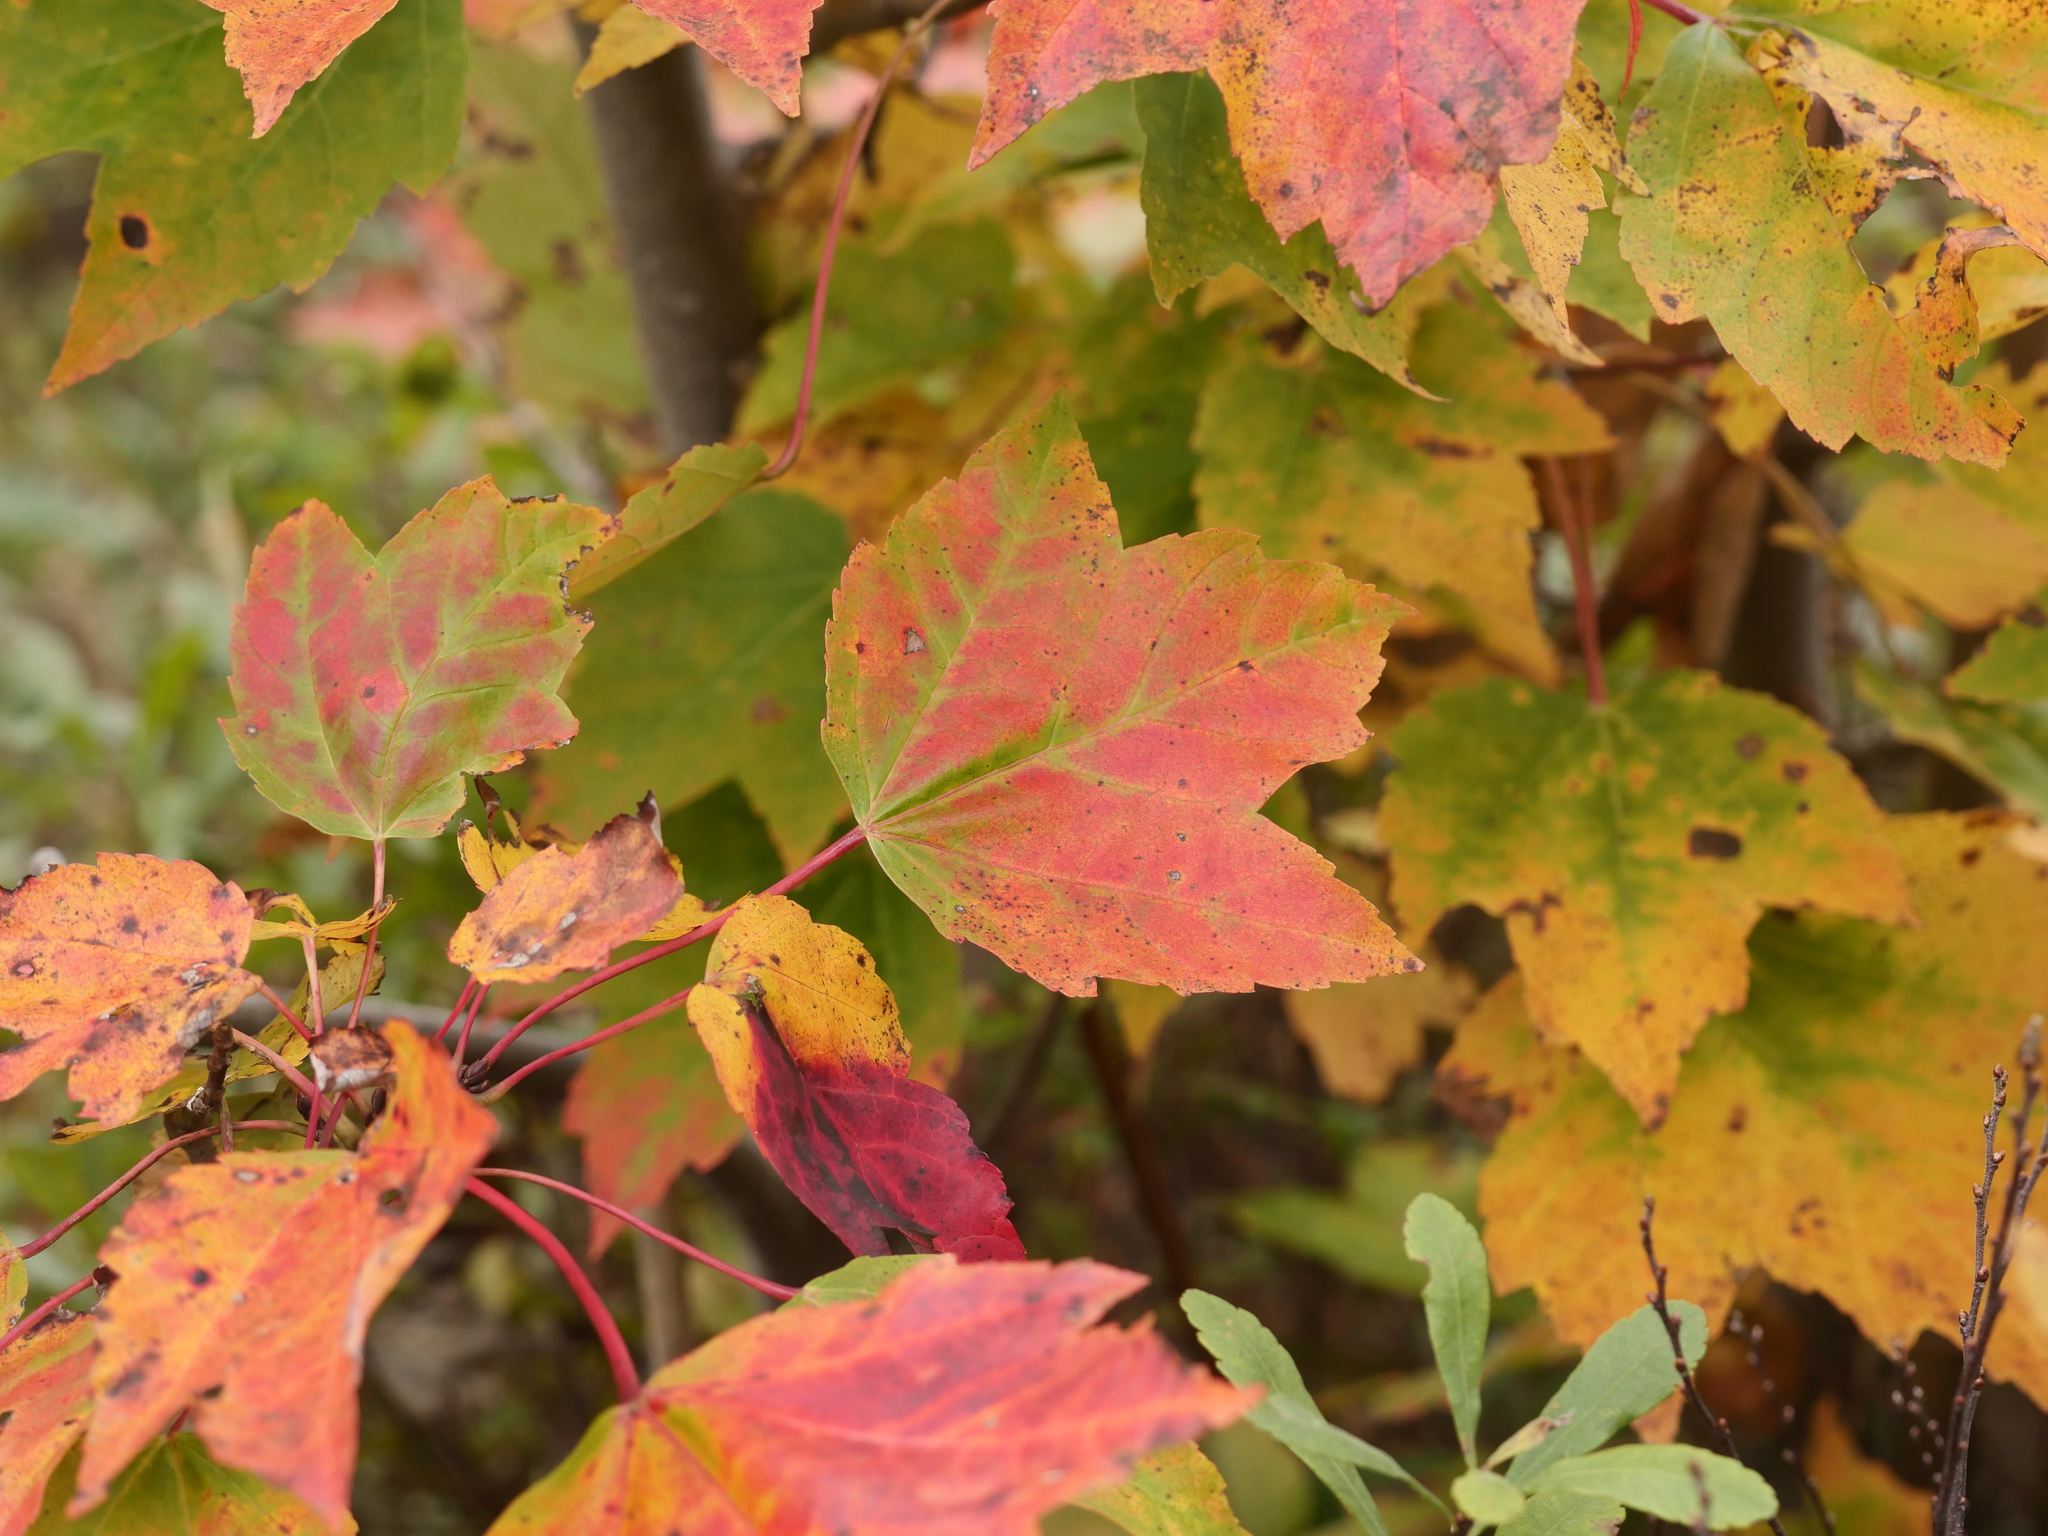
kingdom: Plantae
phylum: Tracheophyta
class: Magnoliopsida
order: Sapindales
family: Sapindaceae
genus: Acer
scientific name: Acer rubrum
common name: Red maple
